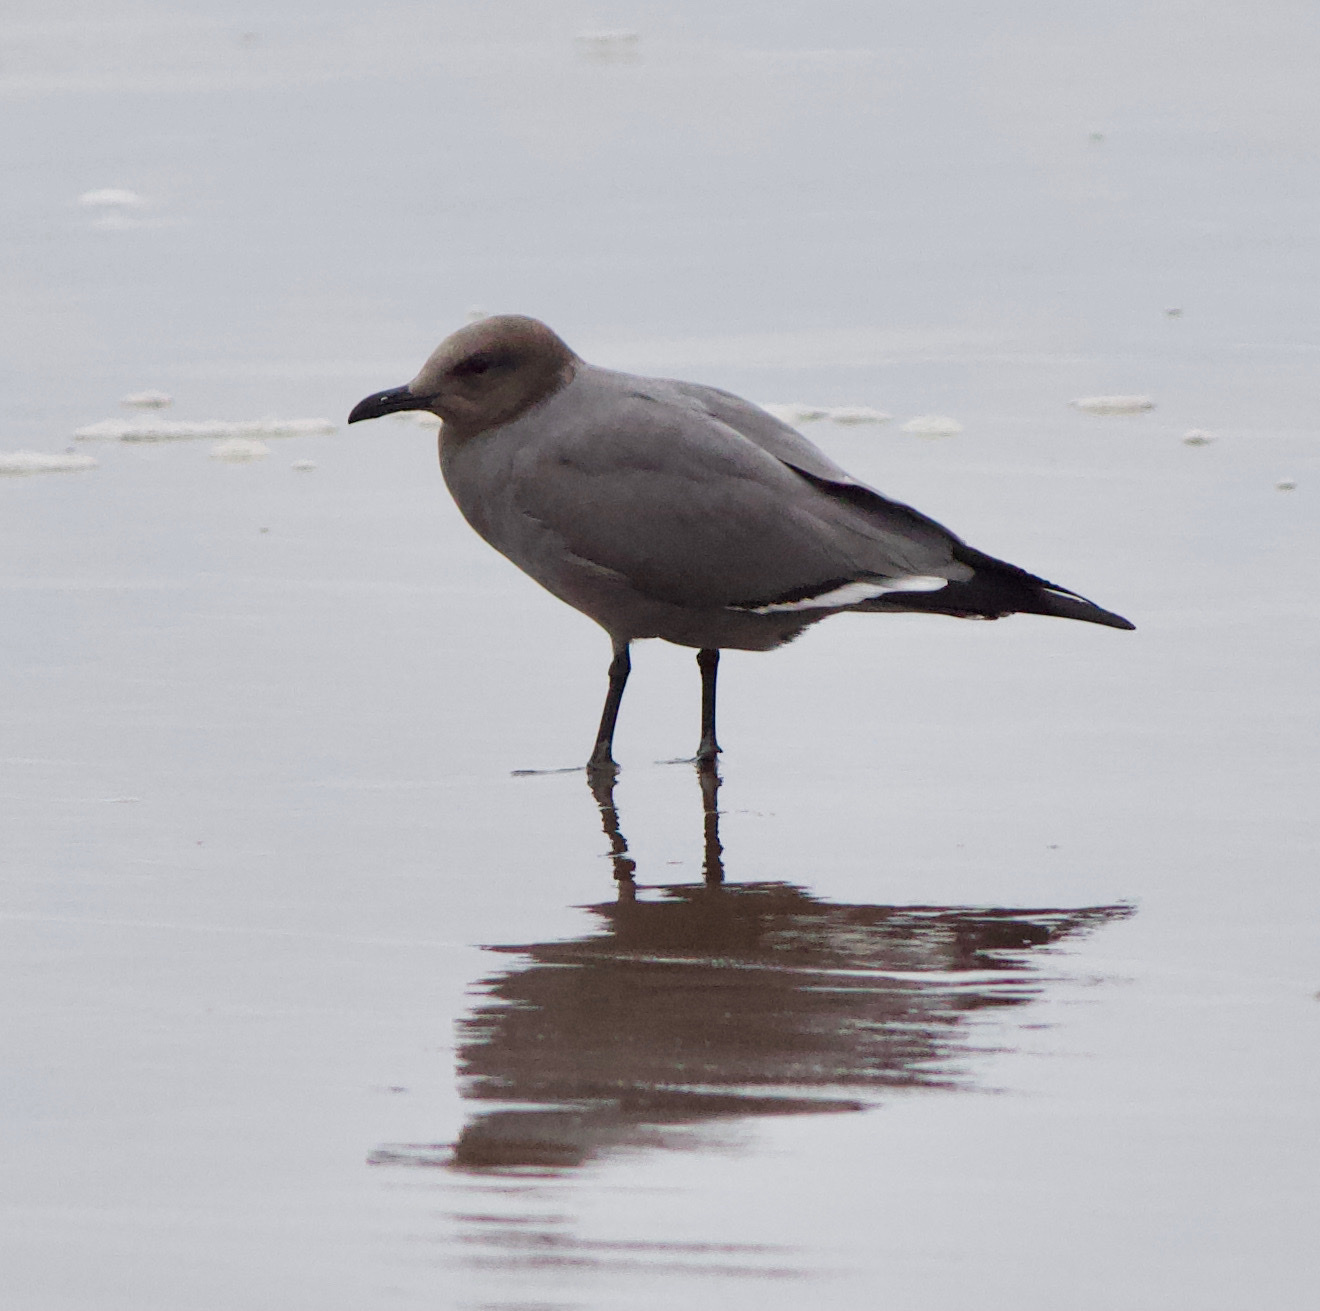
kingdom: Animalia
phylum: Chordata
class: Aves
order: Charadriiformes
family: Laridae
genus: Leucophaeus
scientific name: Leucophaeus modestus
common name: Gray gull
